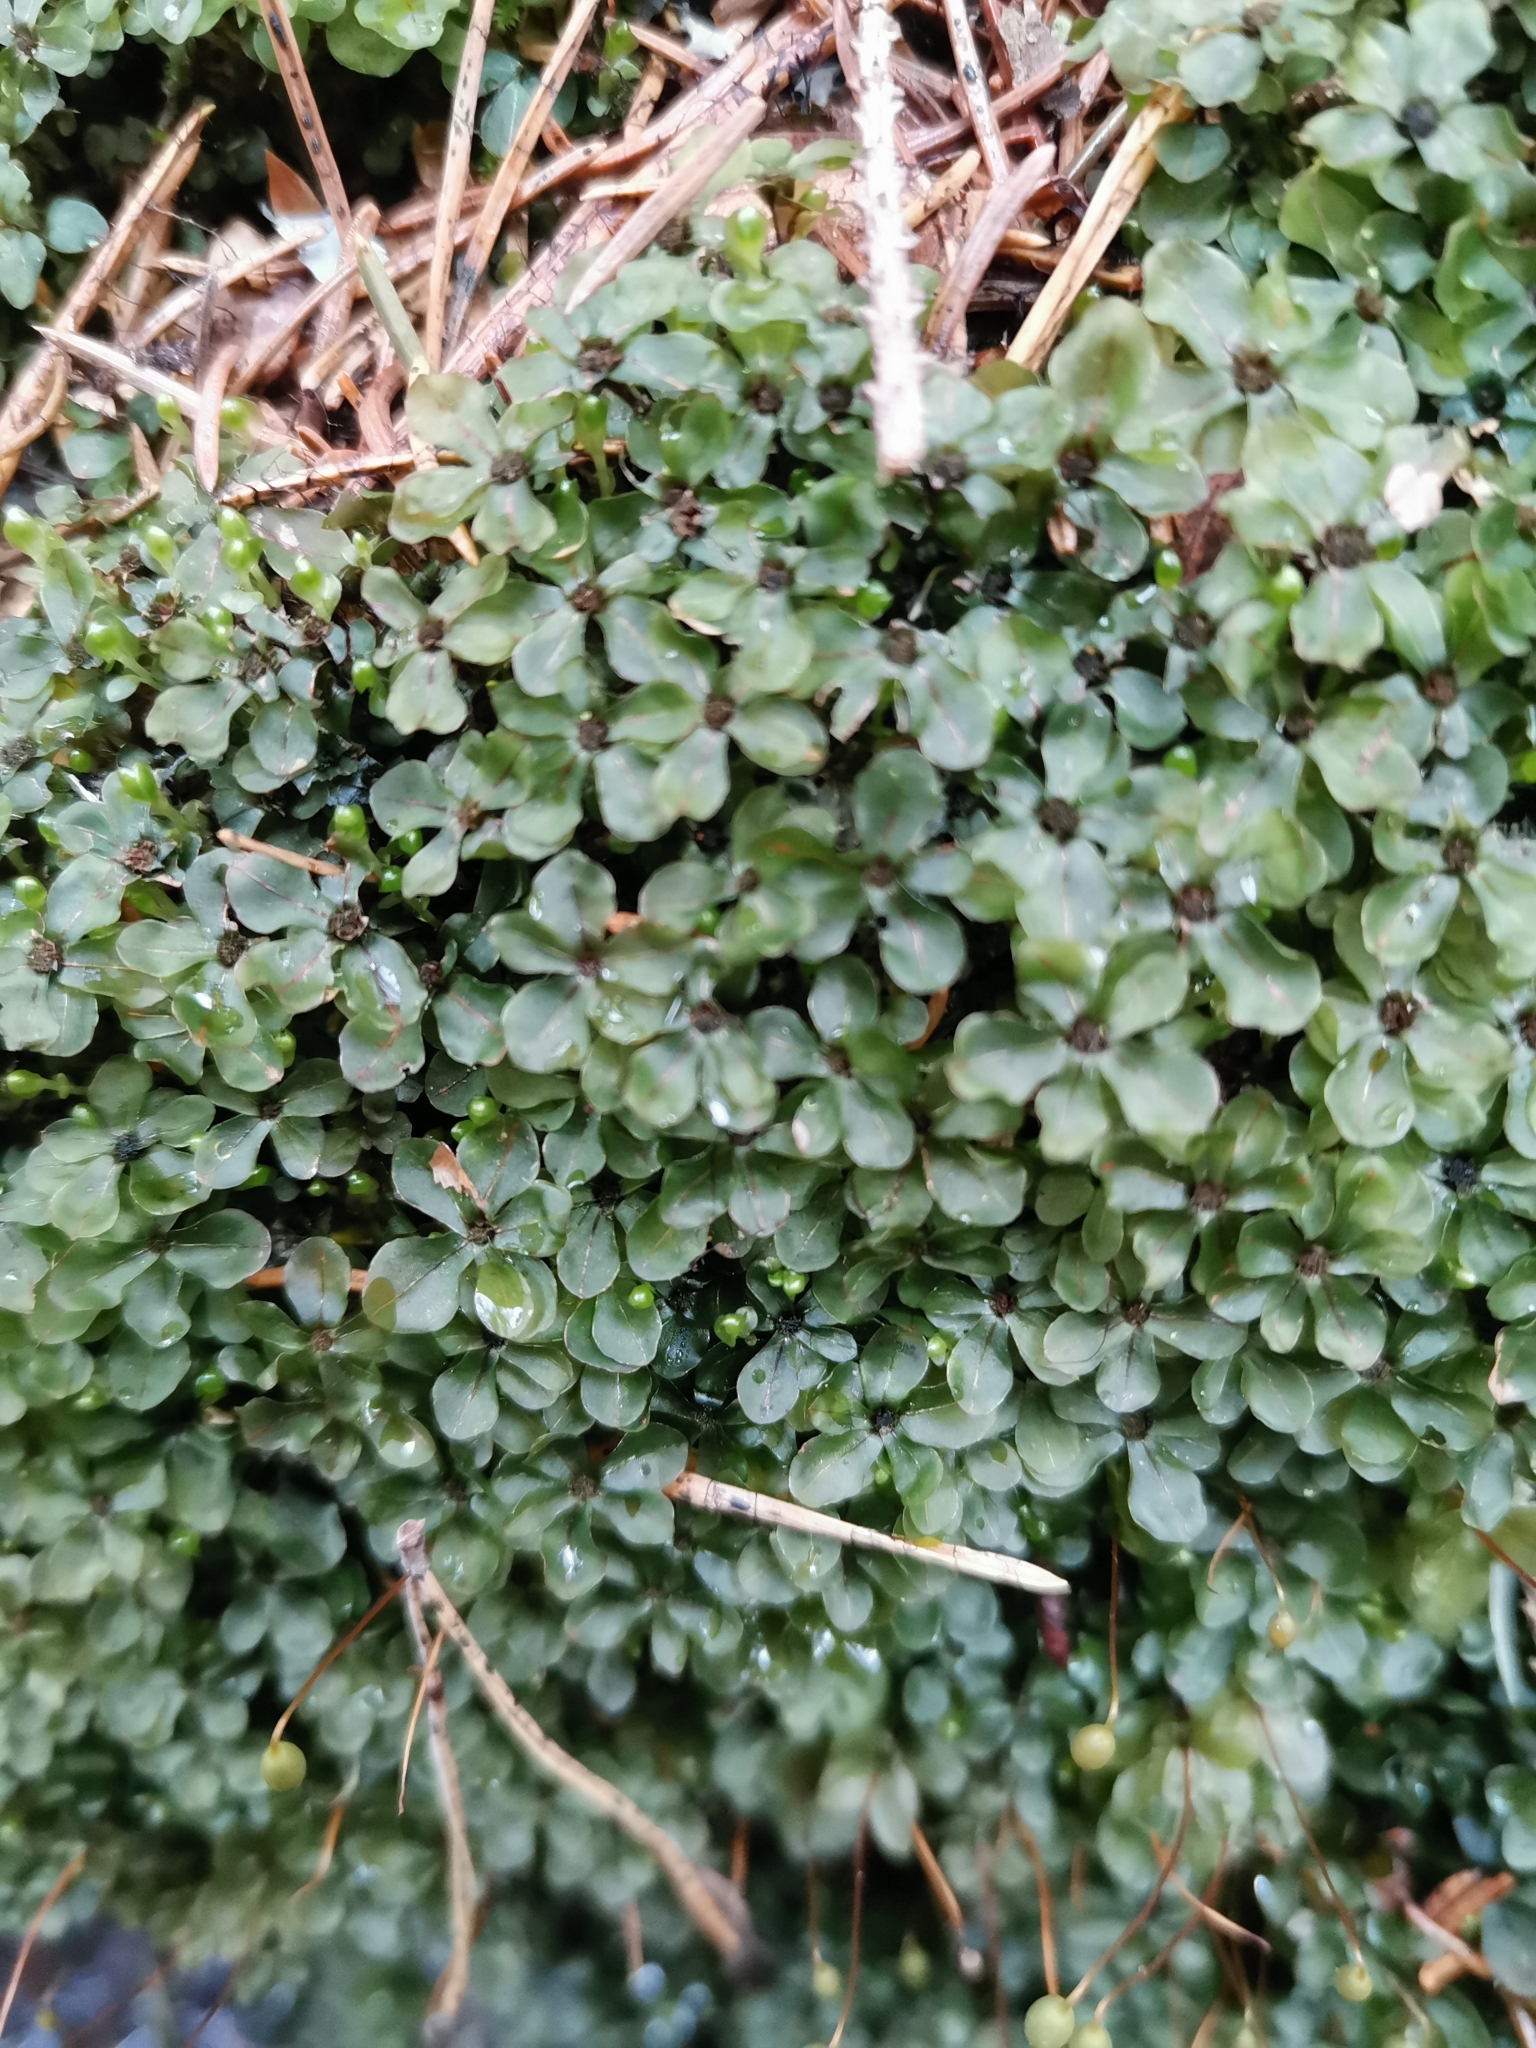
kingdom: Plantae
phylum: Bryophyta
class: Bryopsida
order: Bryales
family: Mniaceae
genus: Rhizomnium
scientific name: Rhizomnium punctatum
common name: Dotted leafy moss
